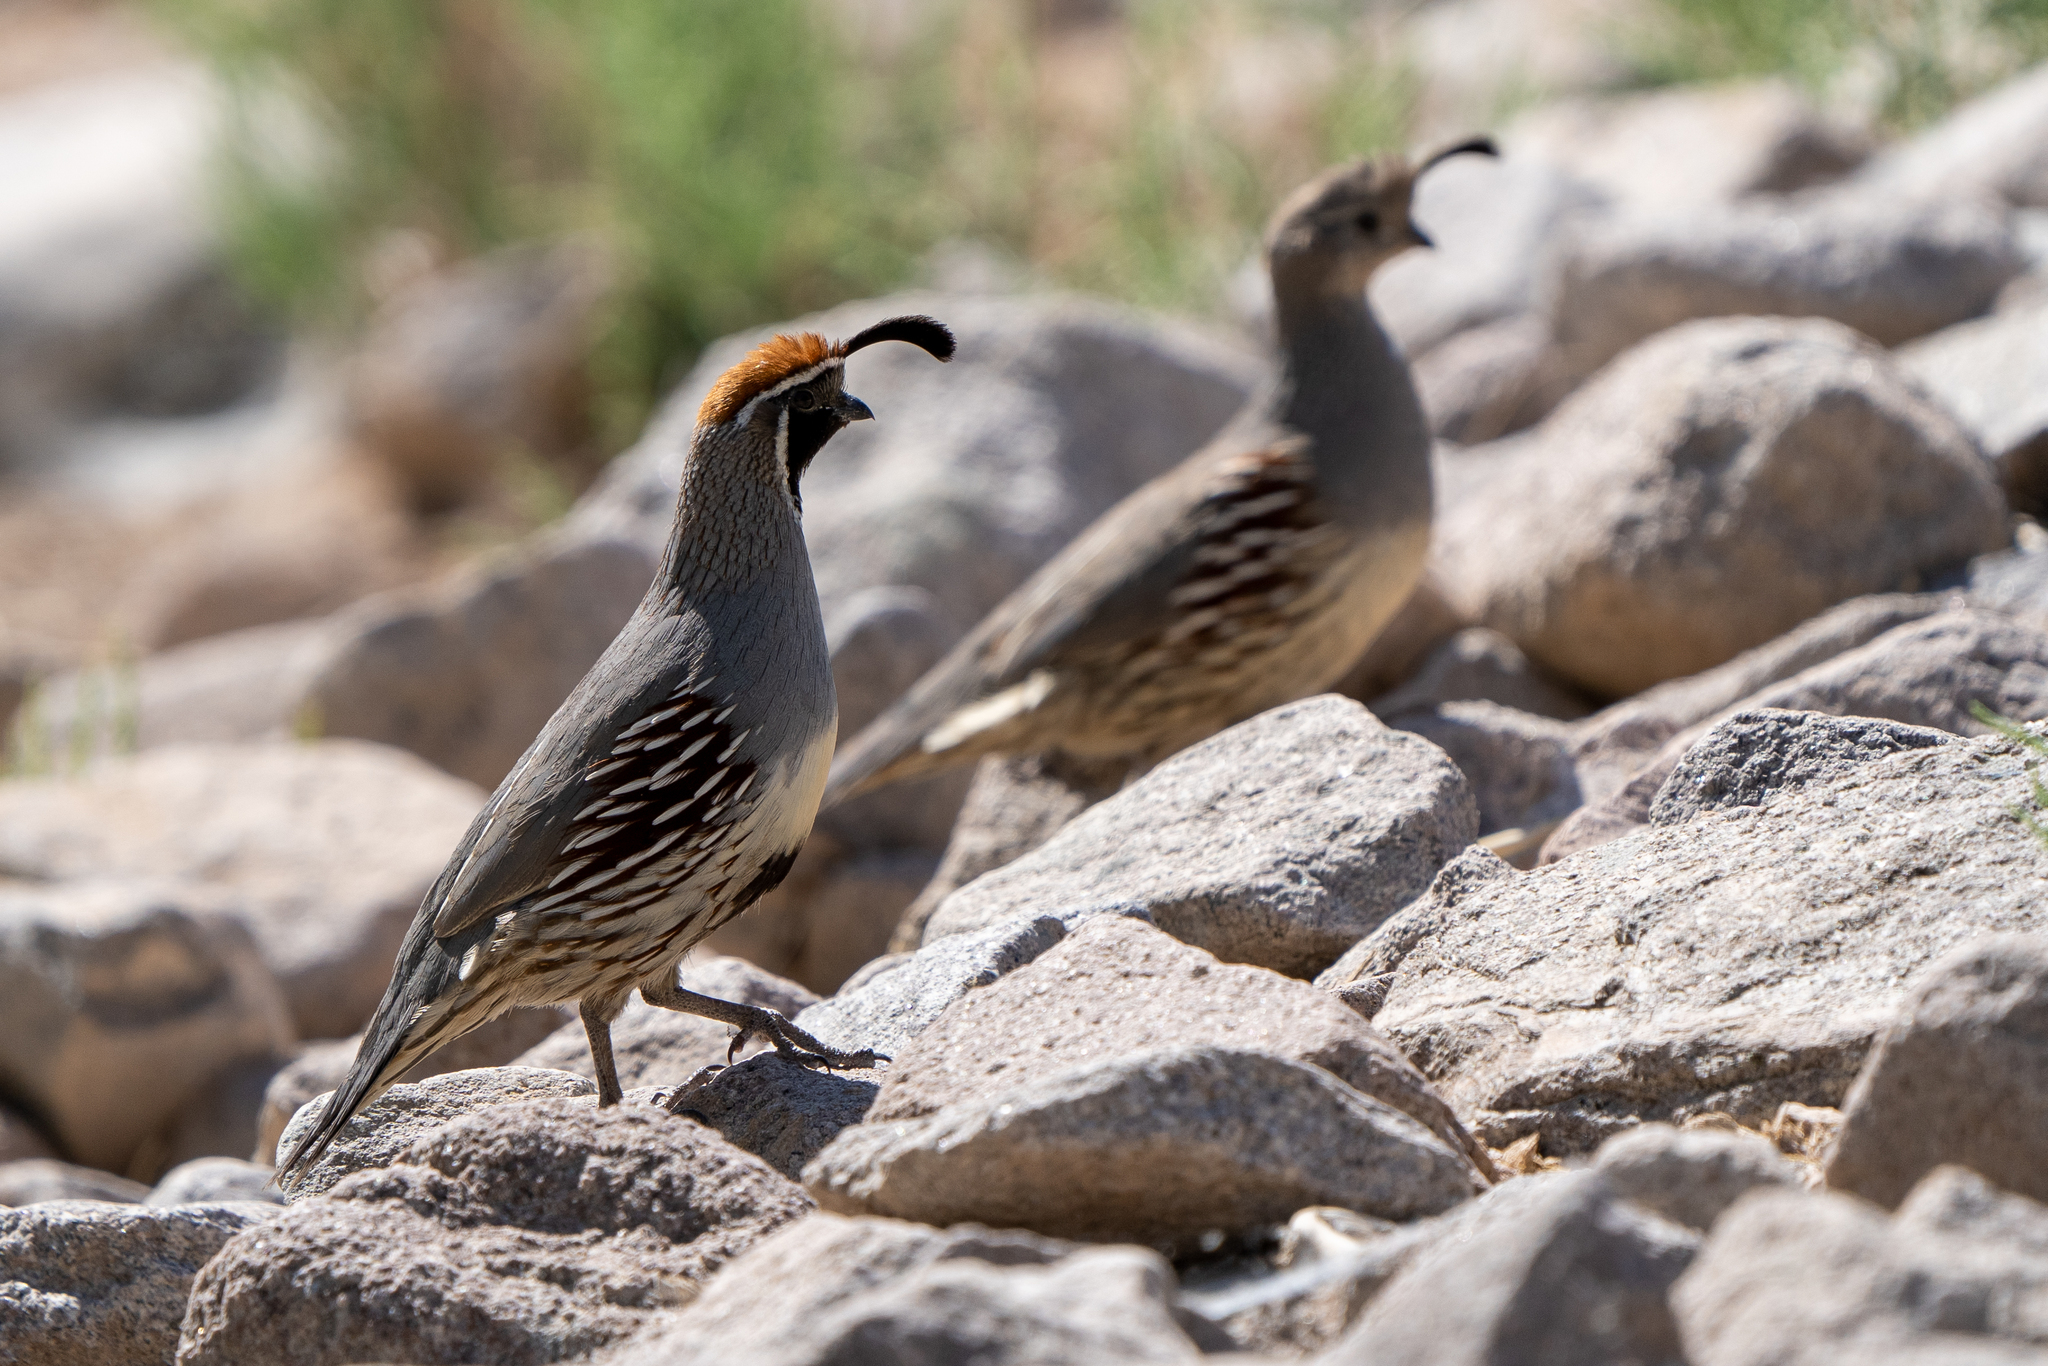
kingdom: Animalia
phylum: Chordata
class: Aves
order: Galliformes
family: Odontophoridae
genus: Callipepla
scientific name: Callipepla gambelii
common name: Gambel's quail
